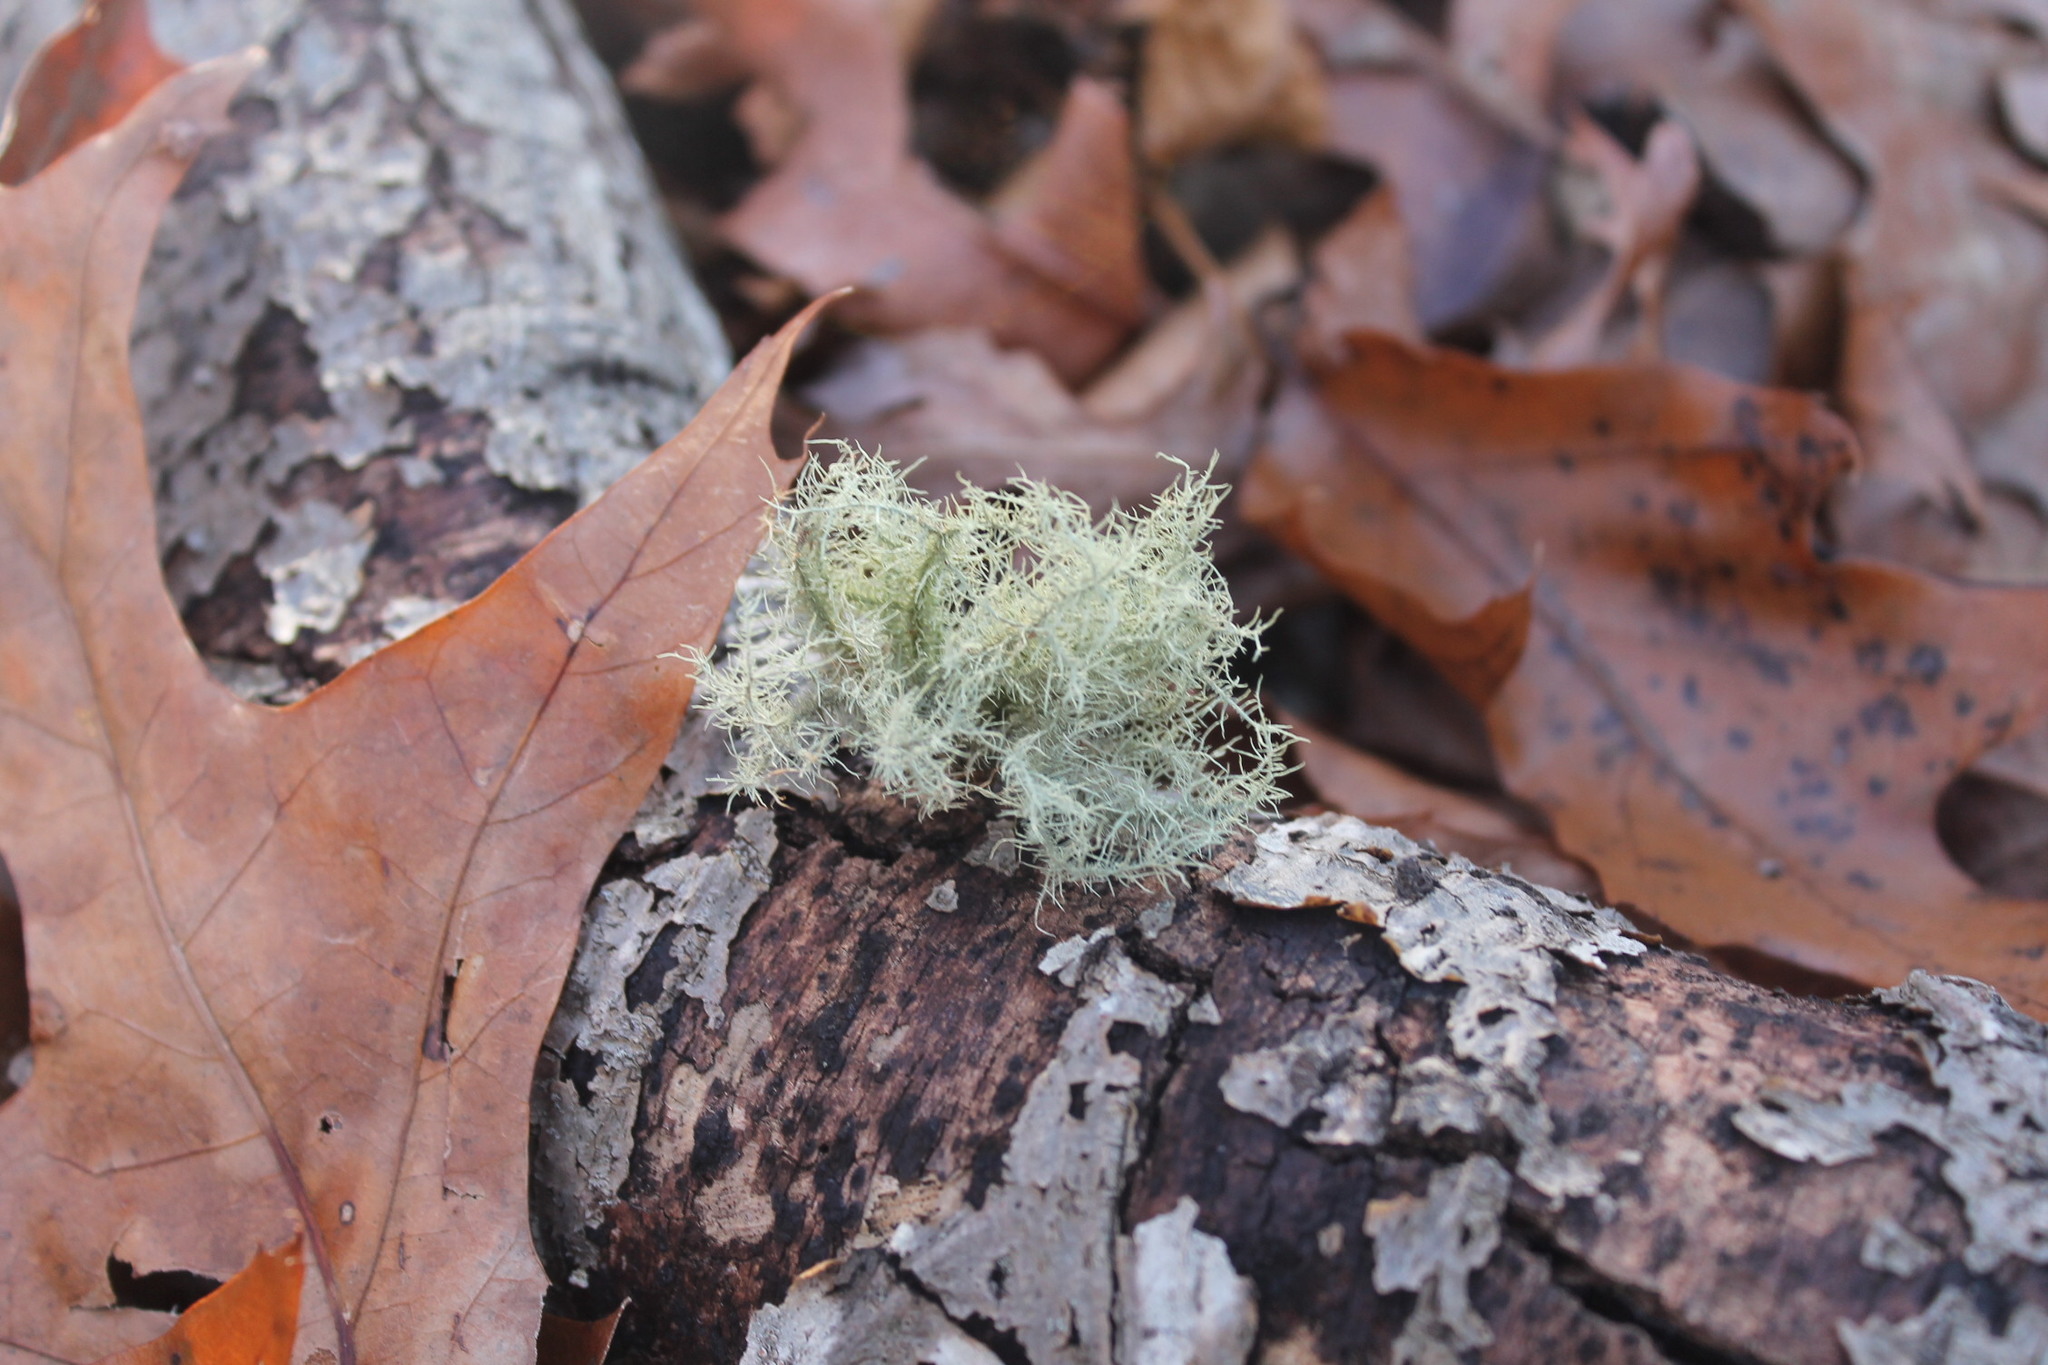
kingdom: Fungi
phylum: Ascomycota
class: Lecanoromycetes
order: Lecanorales
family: Parmeliaceae
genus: Usnea
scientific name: Usnea strigosa
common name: Bushy beard lichen
